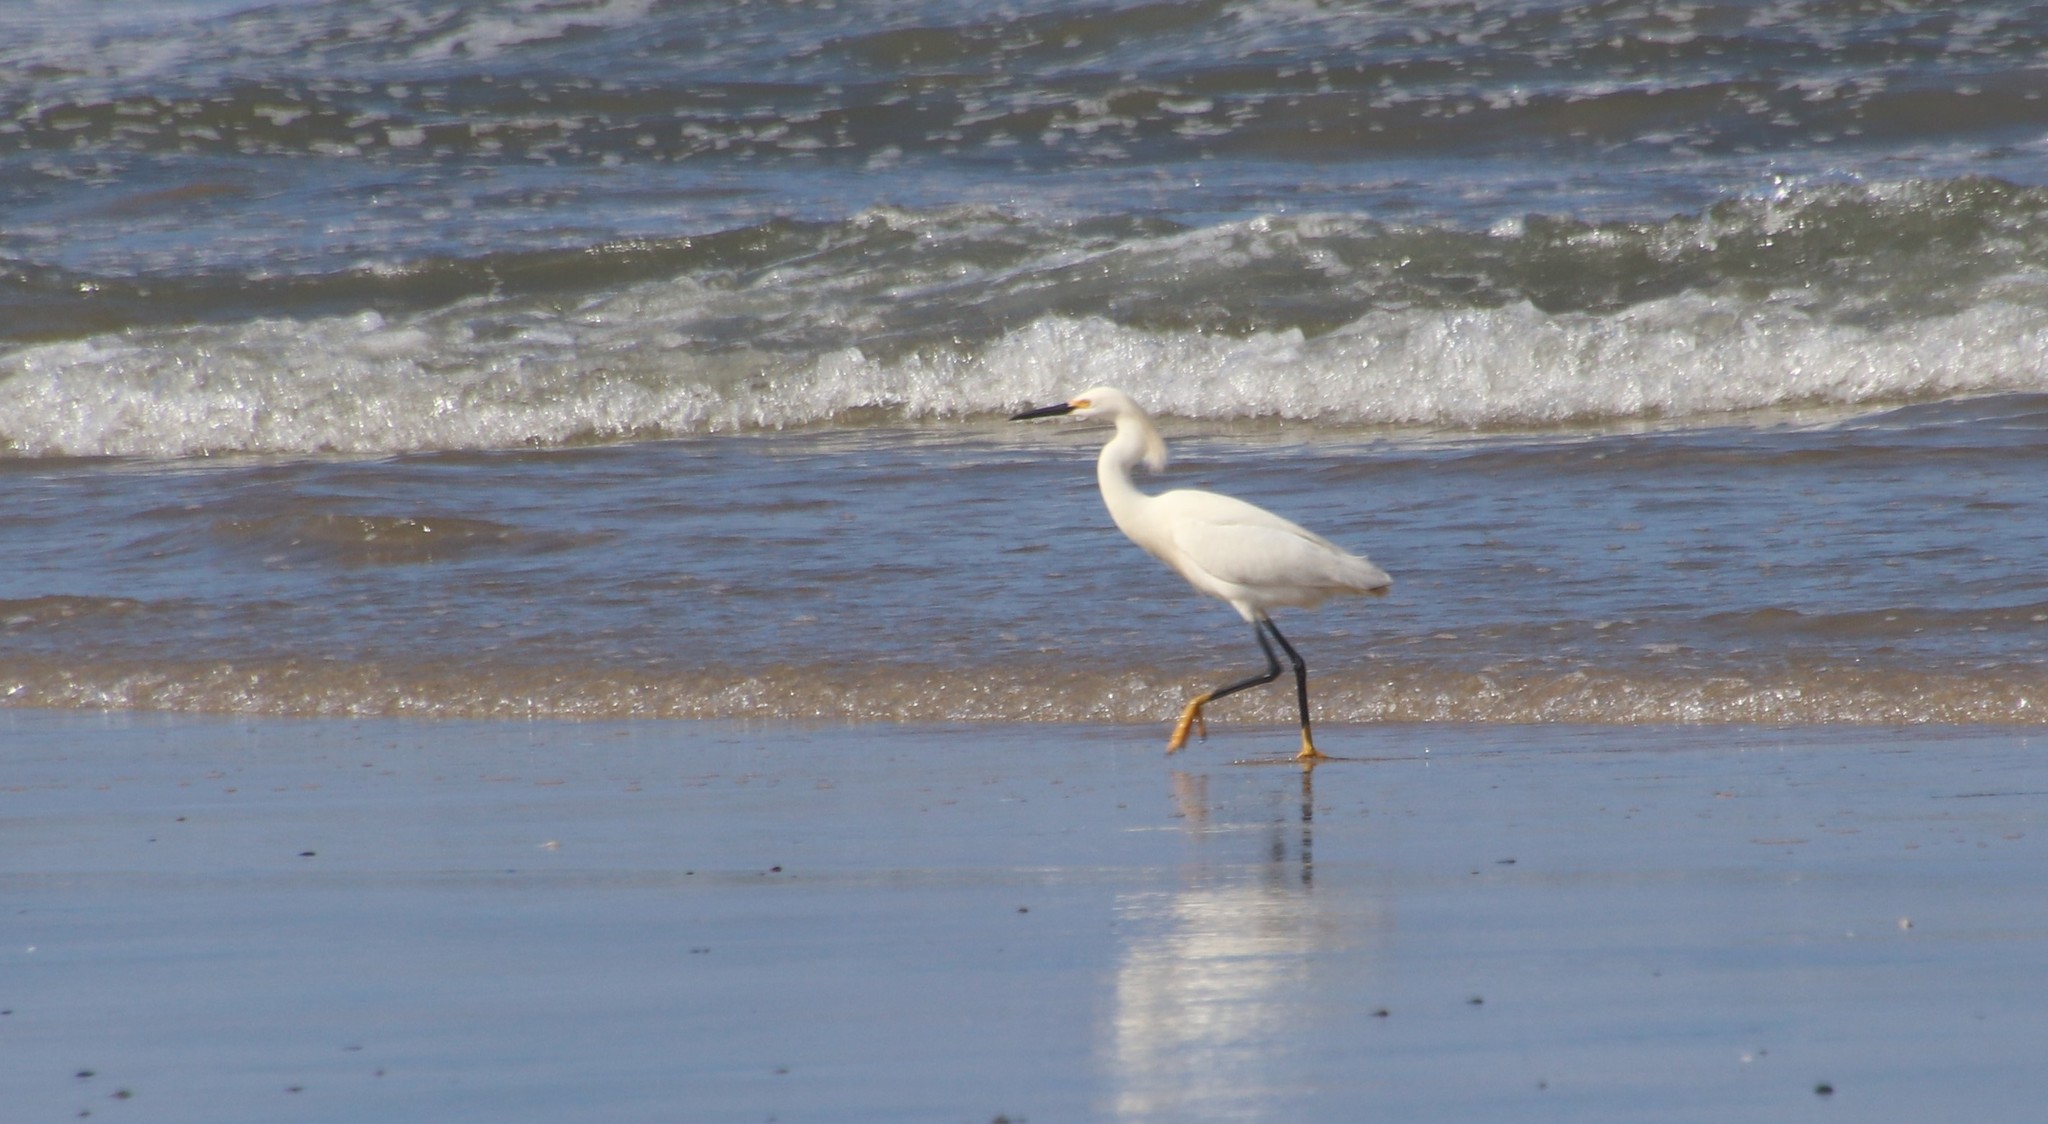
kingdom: Animalia
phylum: Chordata
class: Aves
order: Pelecaniformes
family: Ardeidae
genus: Egretta
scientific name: Egretta thula
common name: Snowy egret
